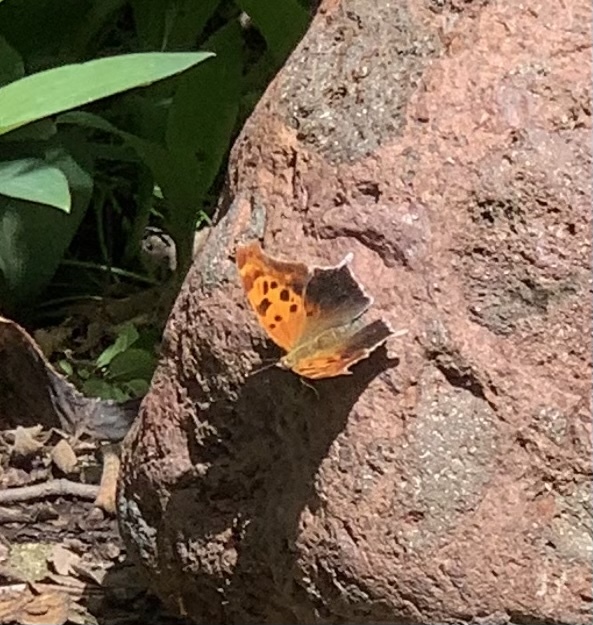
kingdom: Animalia
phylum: Arthropoda
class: Insecta
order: Lepidoptera
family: Nymphalidae
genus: Polygonia
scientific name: Polygonia interrogationis
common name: Question mark
